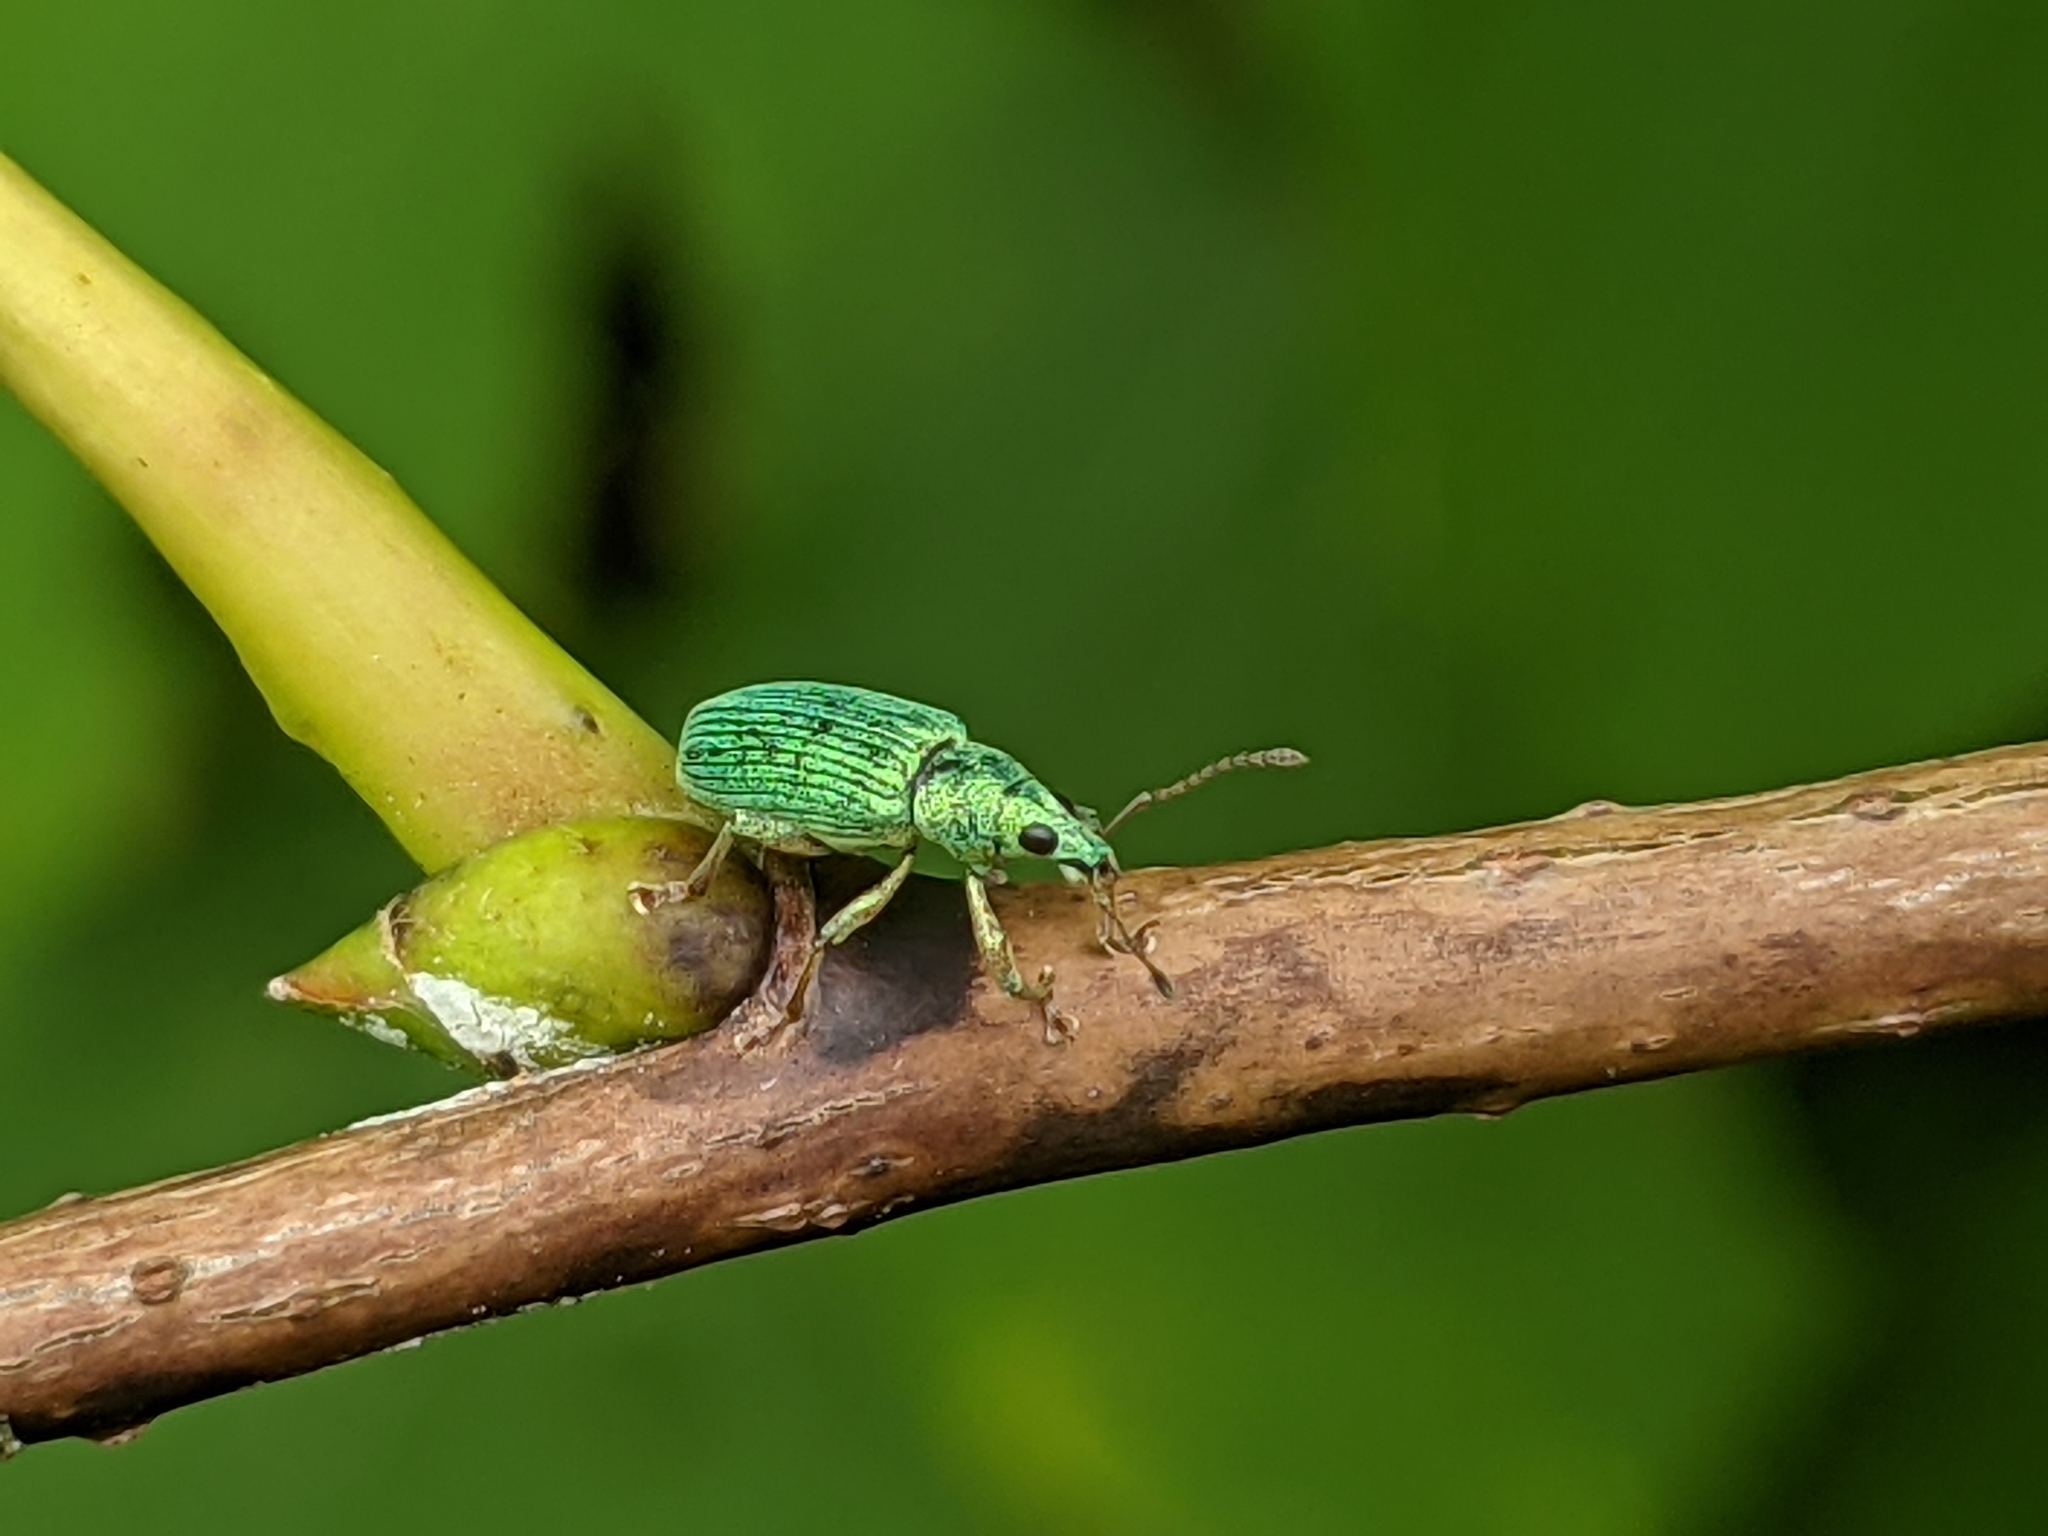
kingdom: Animalia
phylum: Arthropoda
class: Insecta
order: Coleoptera
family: Curculionidae
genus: Polydrusus
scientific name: Polydrusus formosus
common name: Weevil
